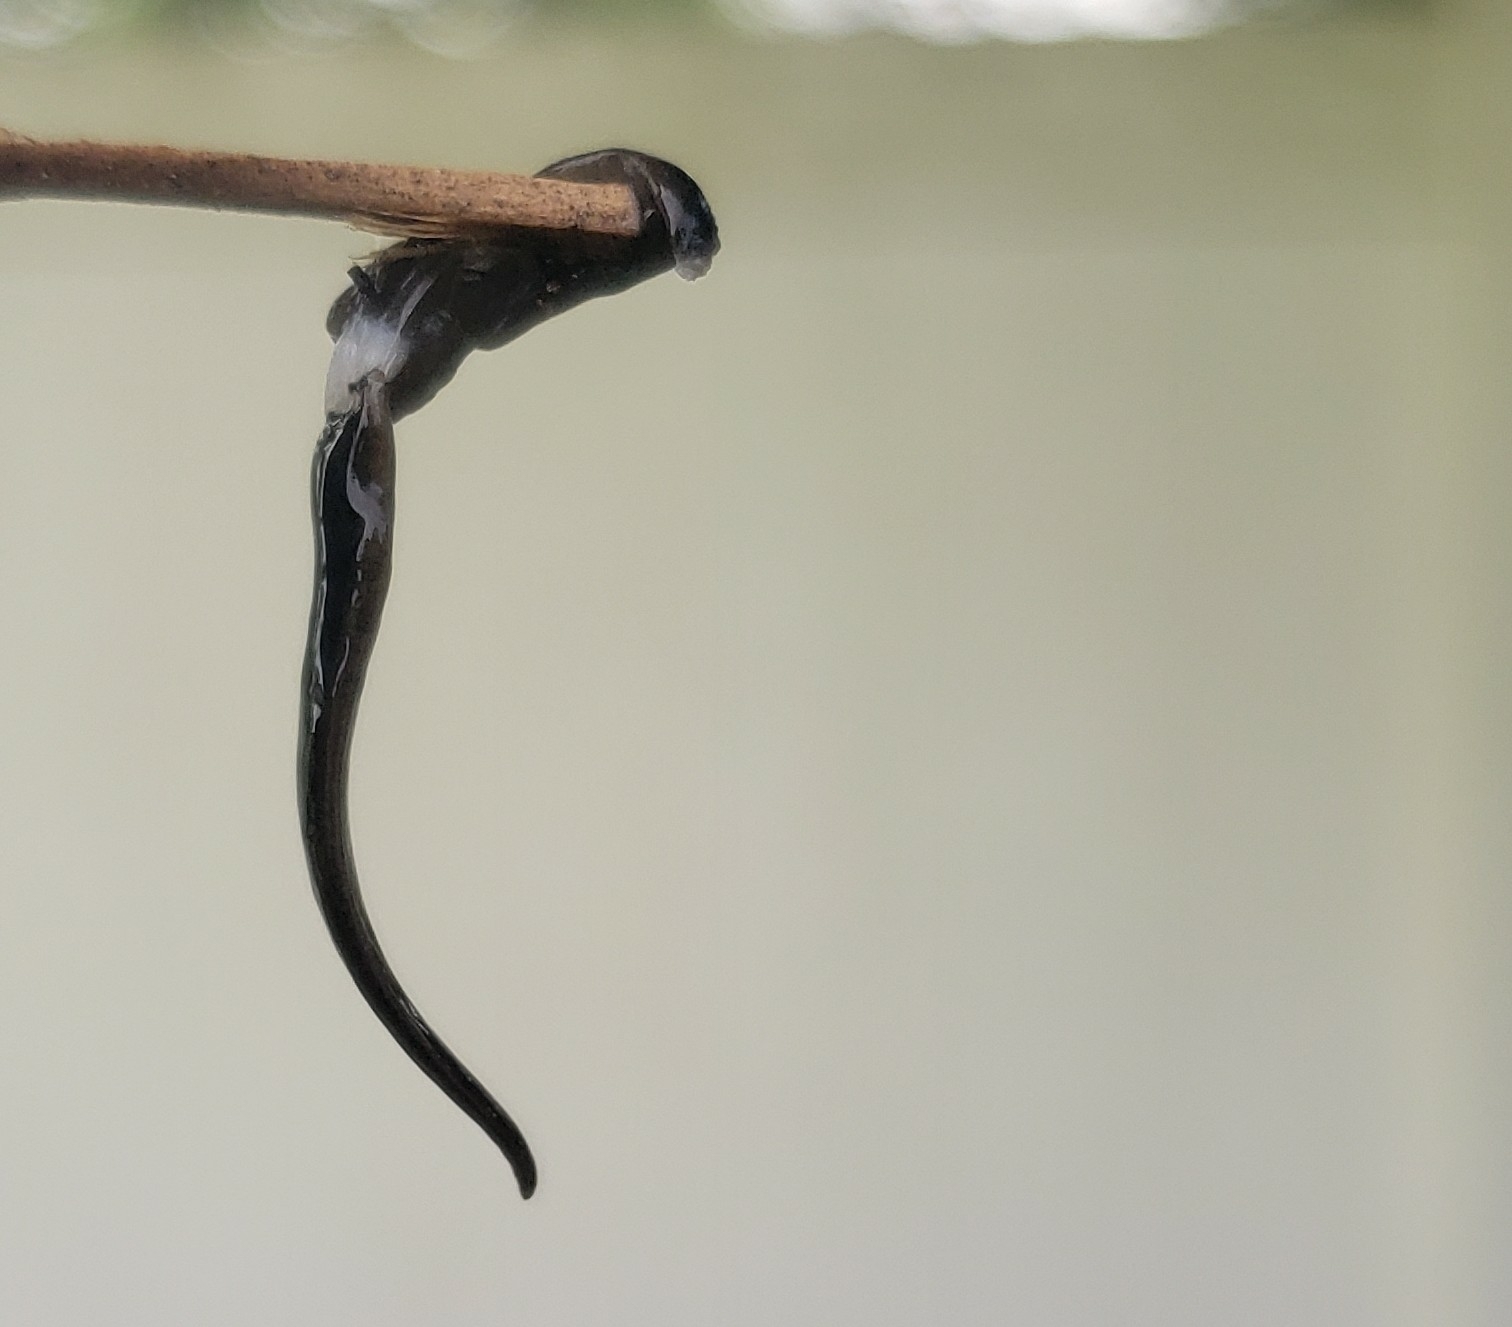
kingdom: Animalia
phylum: Platyhelminthes
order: Tricladida
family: Geoplanidae
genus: Platydemus
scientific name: Platydemus manokwari
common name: New guinea flatworm
